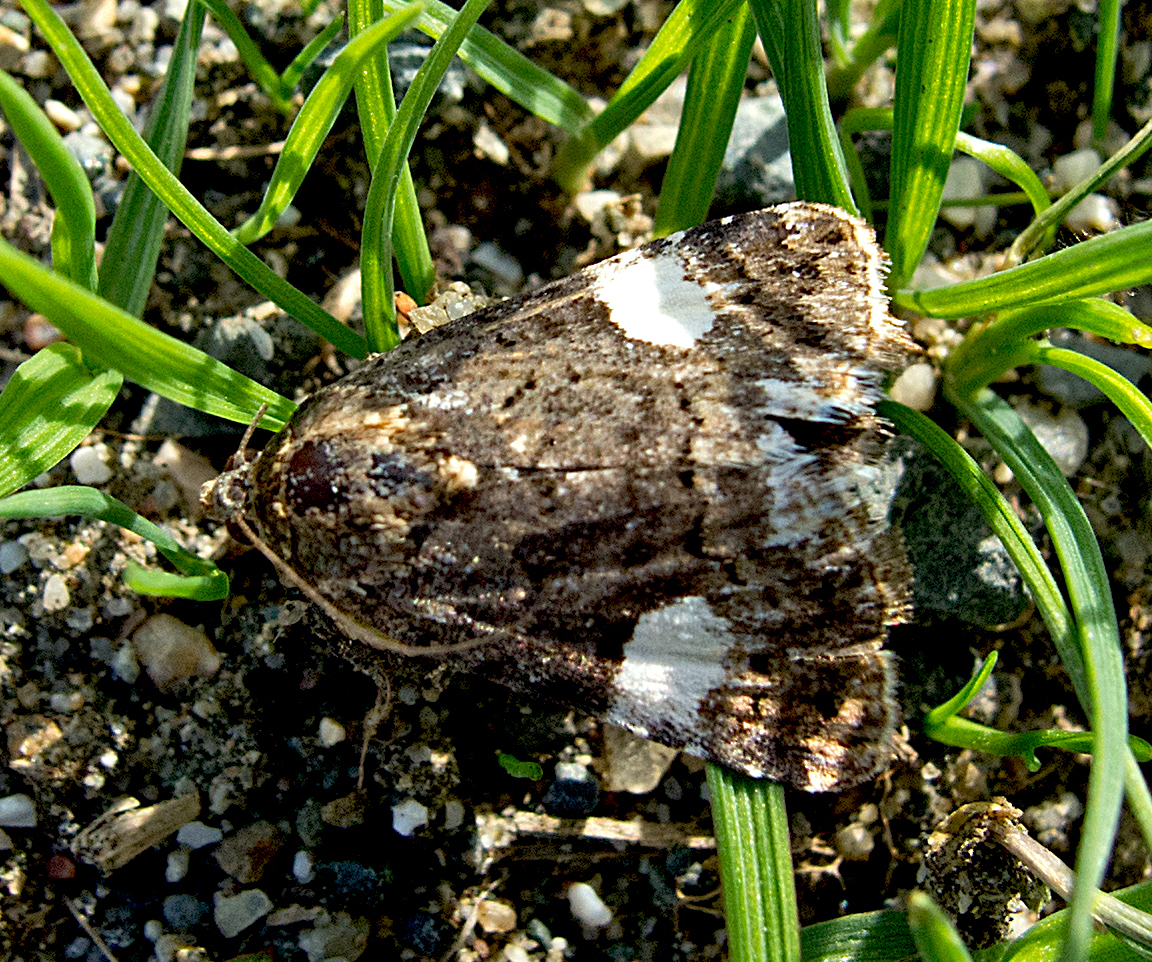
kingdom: Animalia
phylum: Arthropoda
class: Insecta
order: Lepidoptera
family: Erebidae
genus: Tyta
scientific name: Tyta luctuosa
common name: Four-spotted
